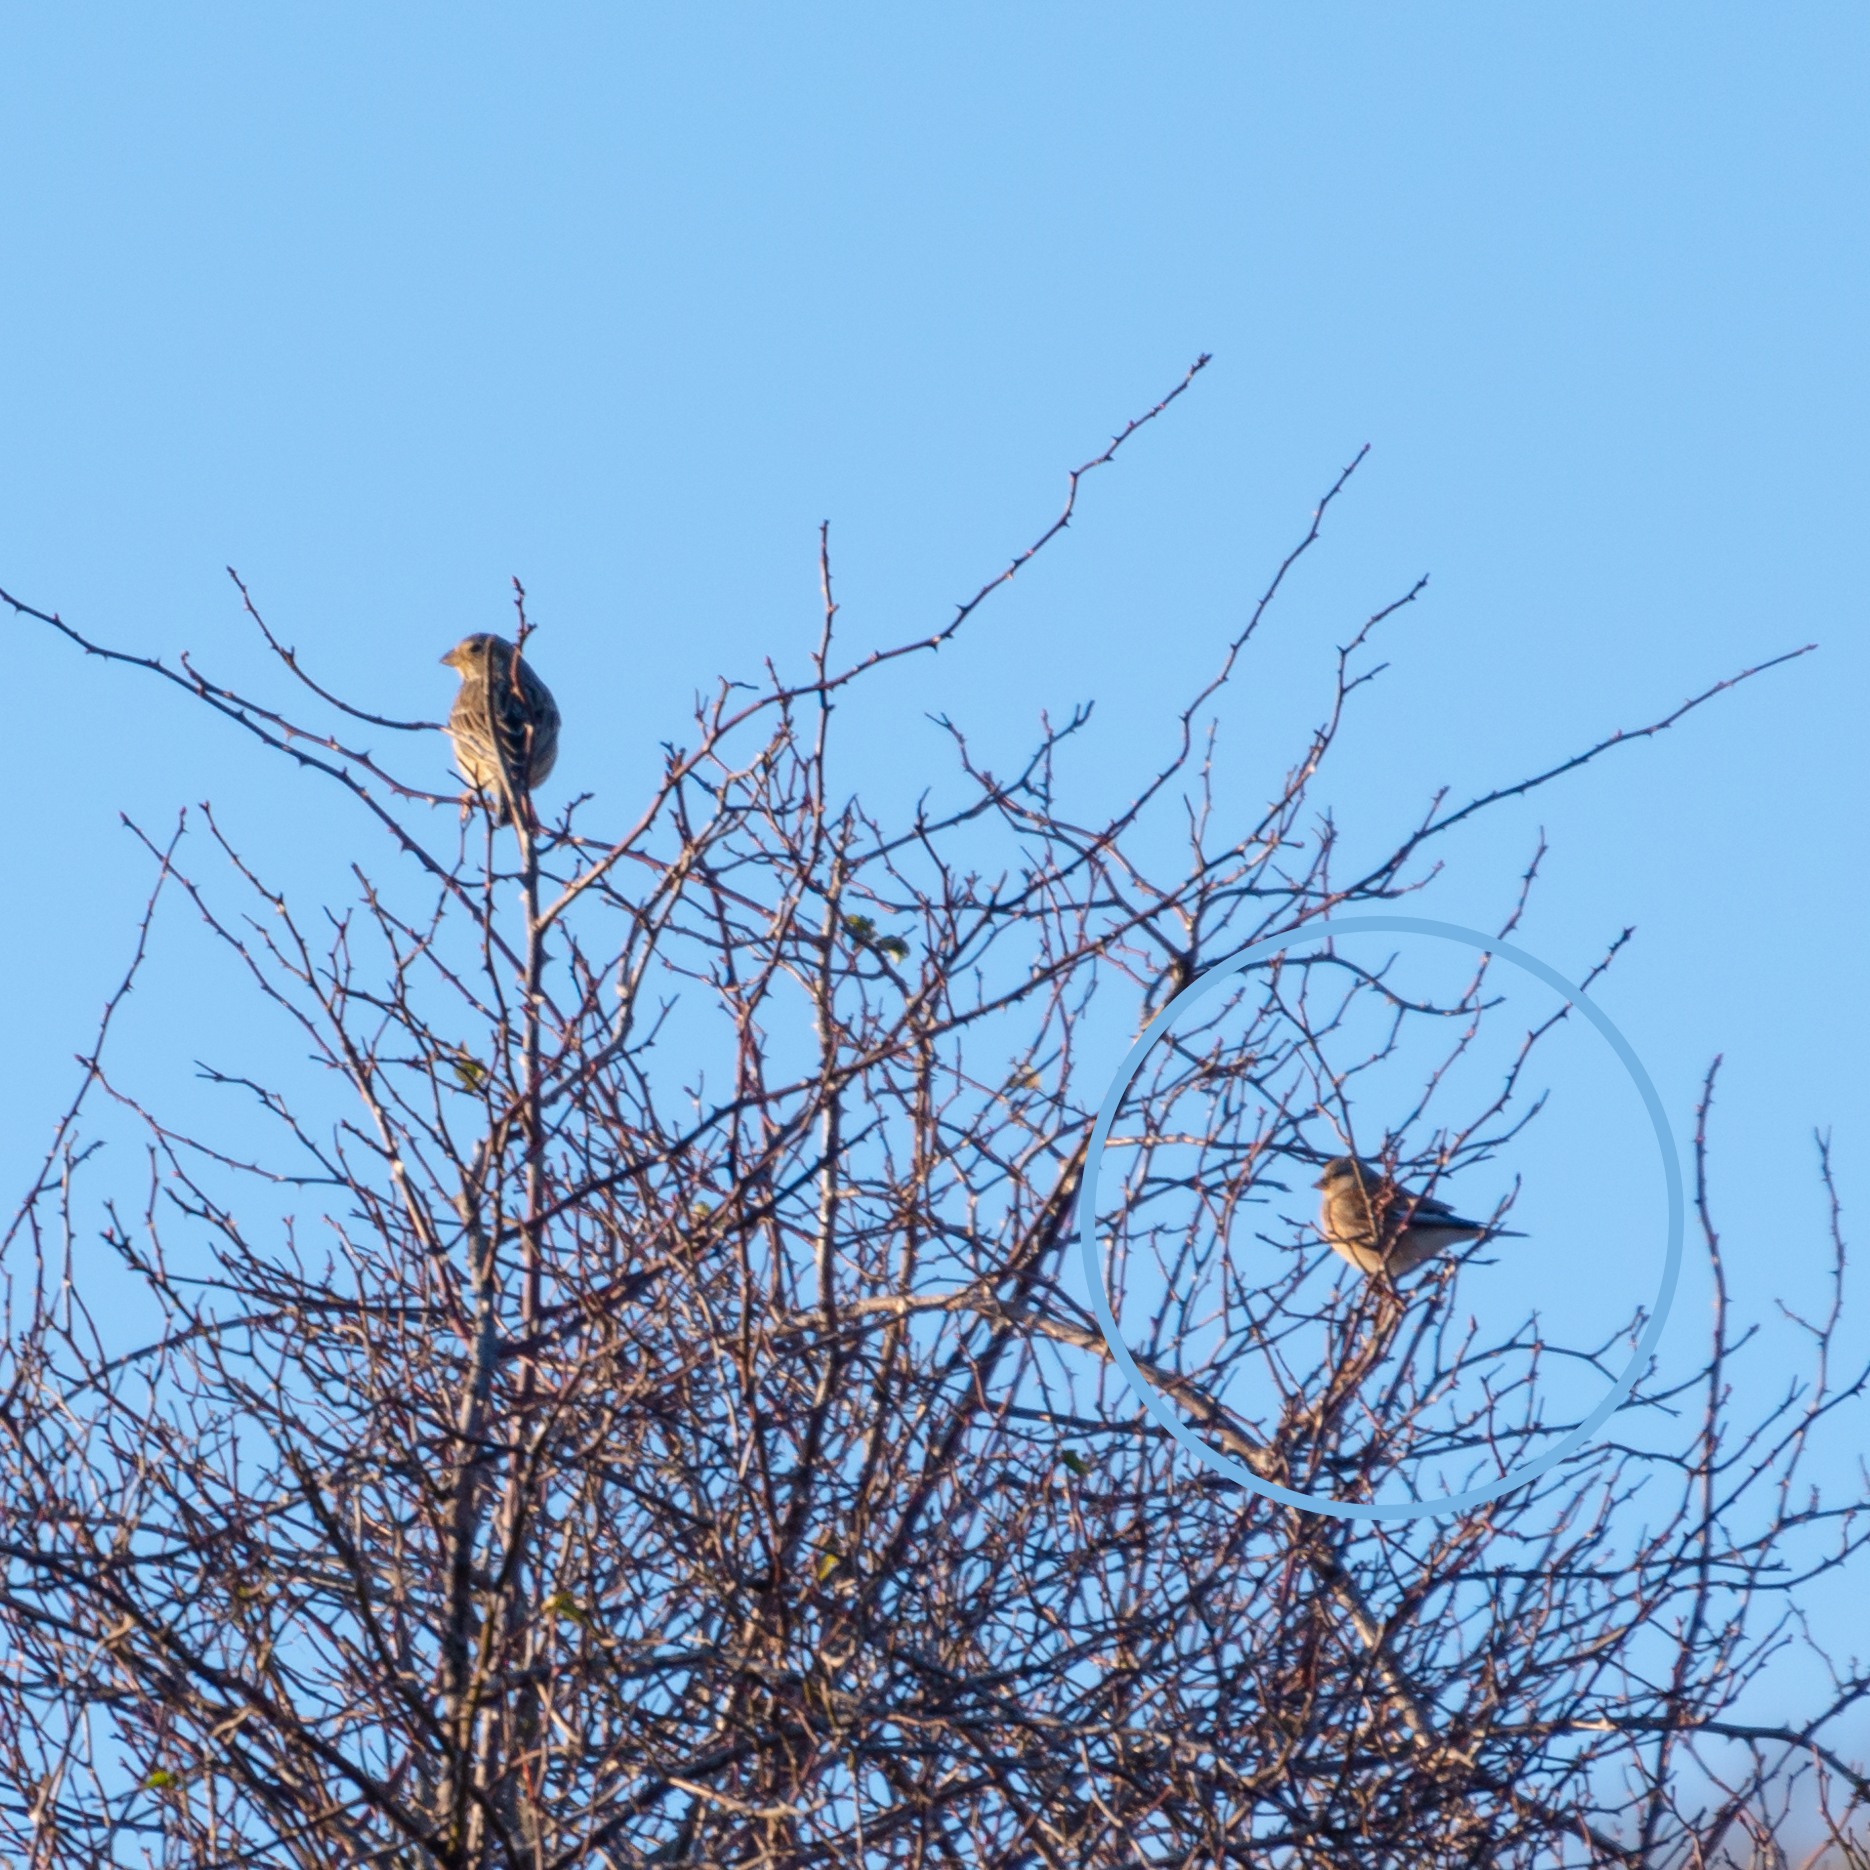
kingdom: Animalia
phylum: Chordata
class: Aves
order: Passeriformes
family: Fringillidae
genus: Linaria
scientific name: Linaria cannabina
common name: Common linnet
